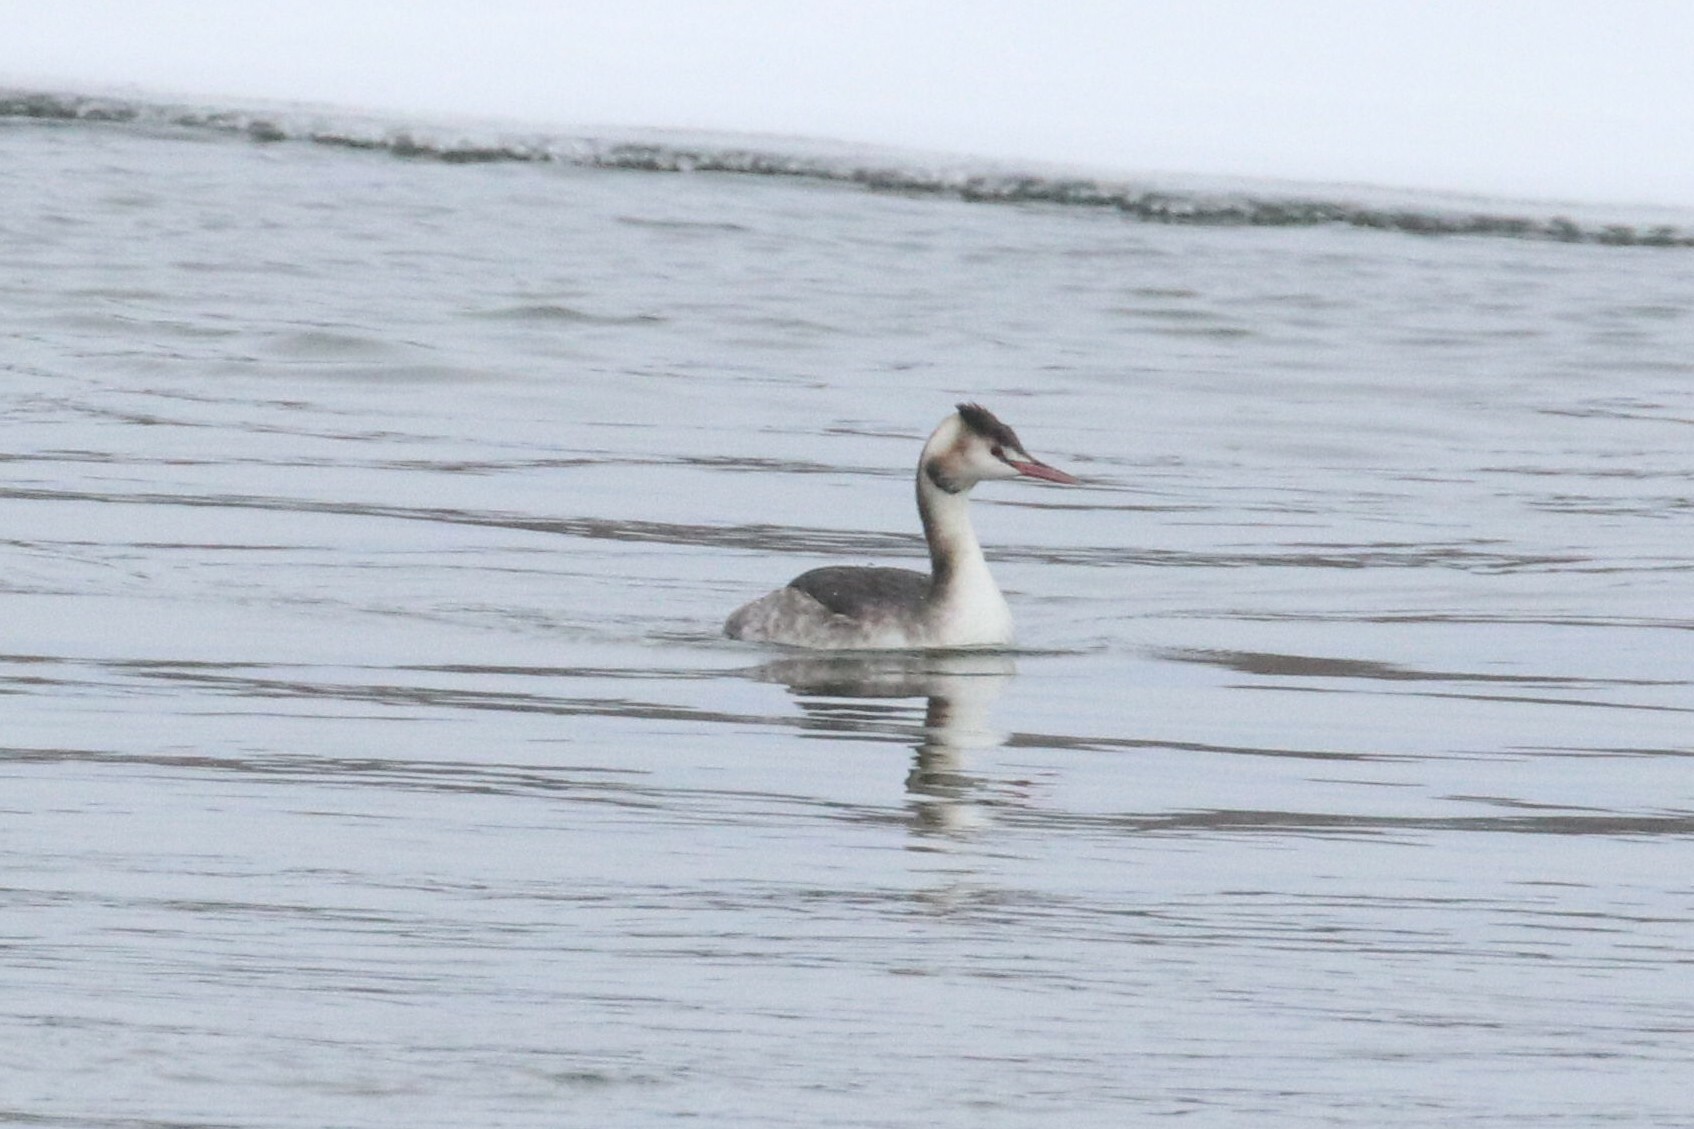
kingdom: Animalia
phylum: Chordata
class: Aves
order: Podicipediformes
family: Podicipedidae
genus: Podiceps
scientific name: Podiceps cristatus
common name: Great crested grebe
